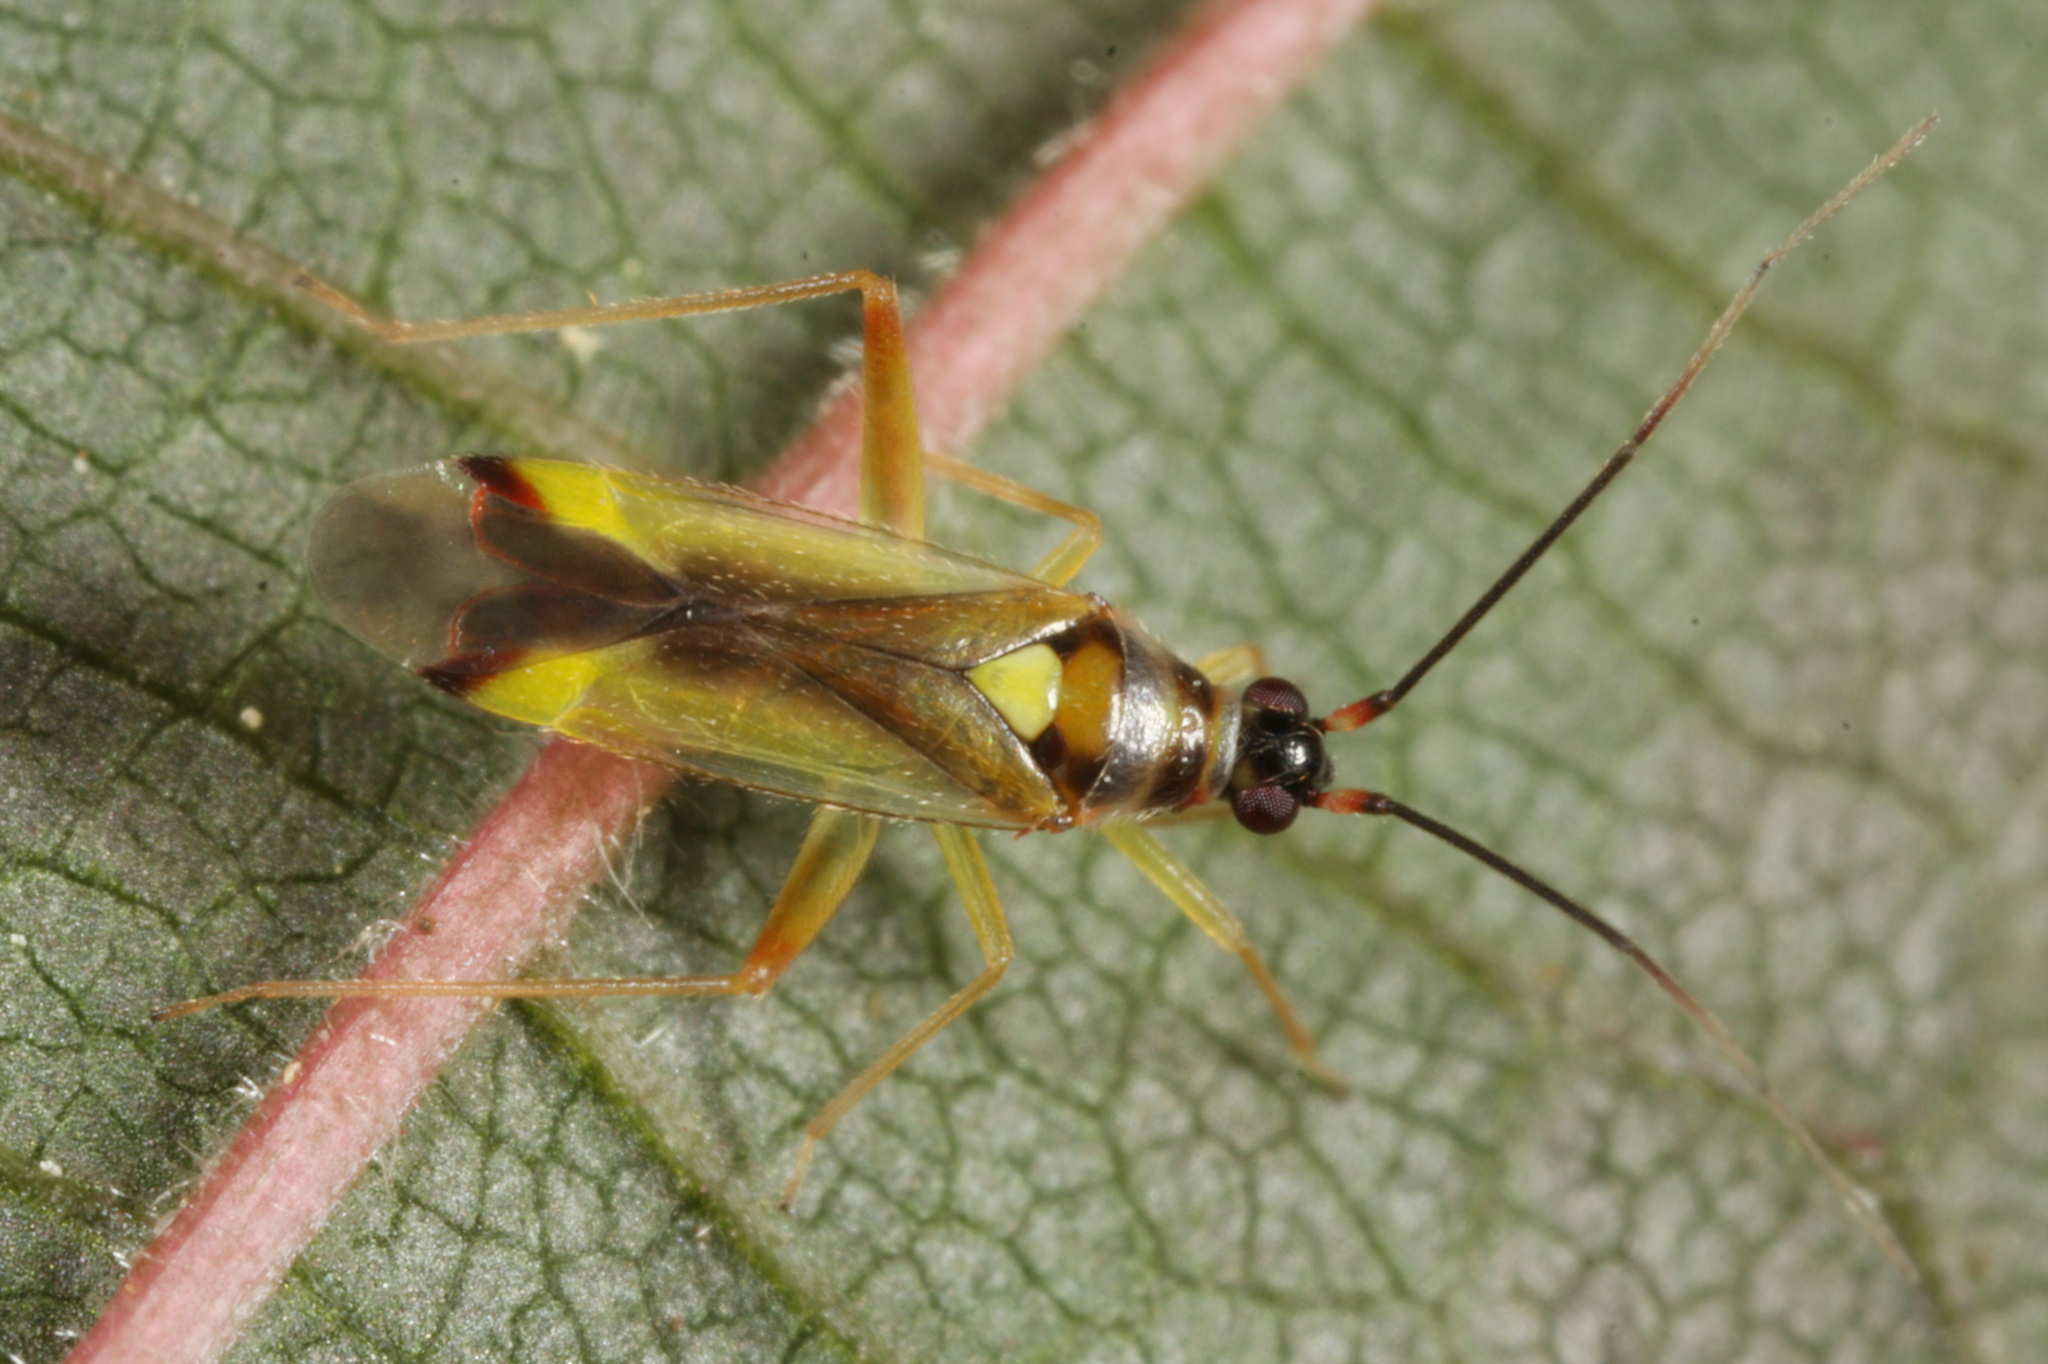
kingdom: Animalia
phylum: Arthropoda
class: Insecta
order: Hemiptera
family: Miridae
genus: Campyloneura
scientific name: Campyloneura virgula
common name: Predatory bug
